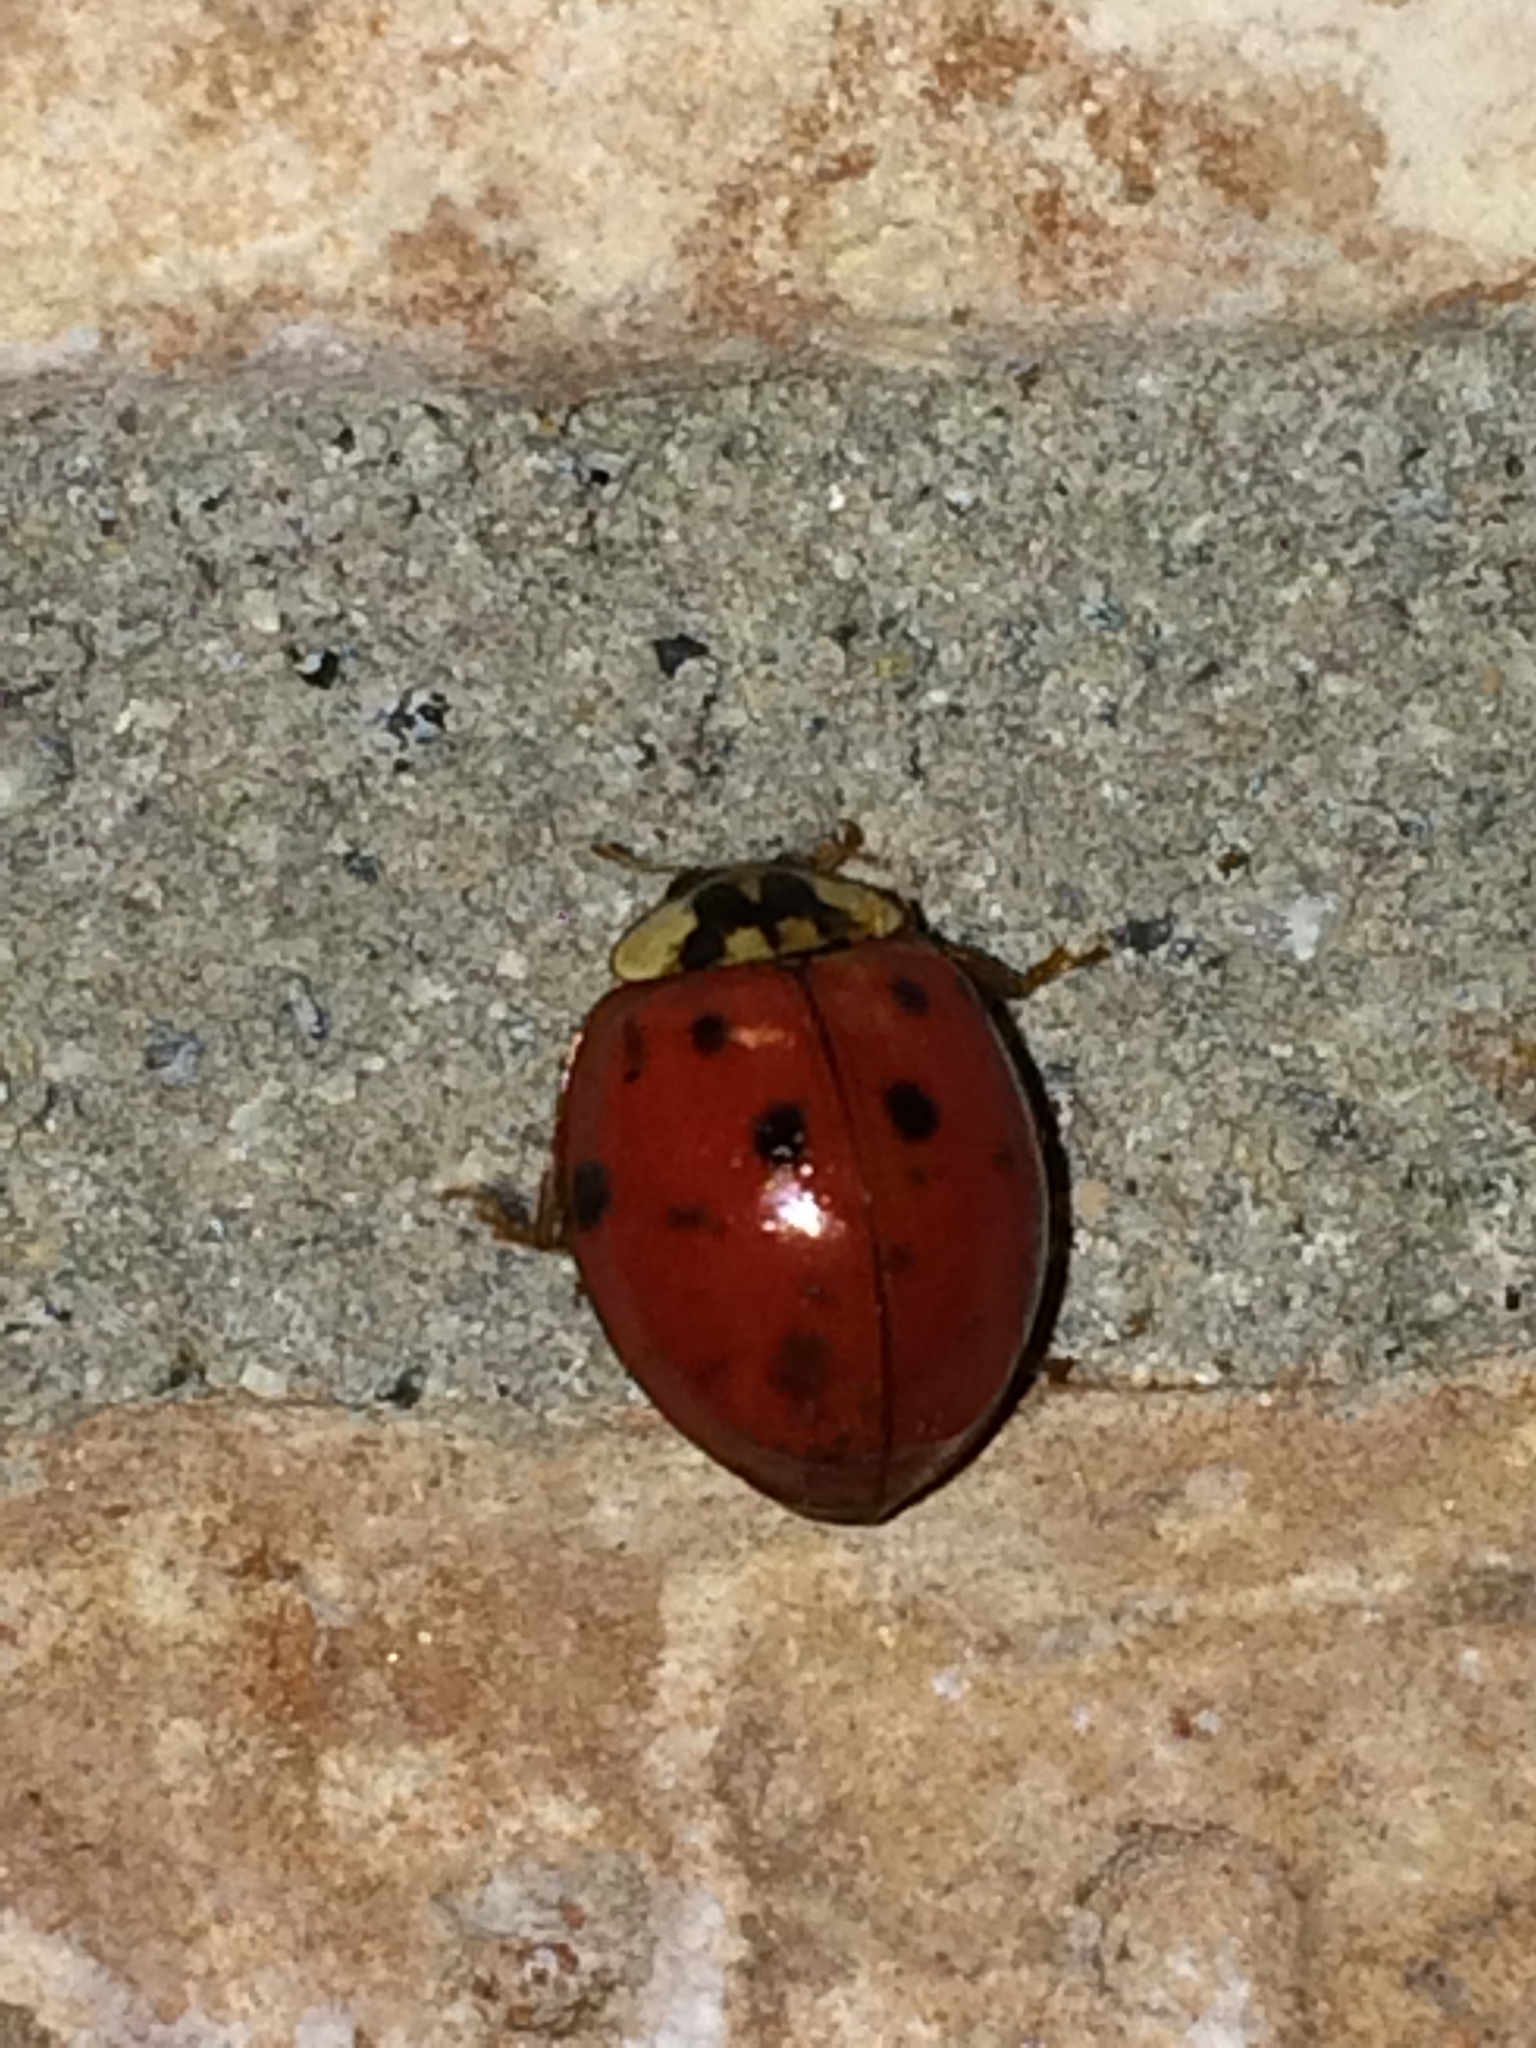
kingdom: Animalia
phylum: Arthropoda
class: Insecta
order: Coleoptera
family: Coccinellidae
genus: Harmonia
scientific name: Harmonia axyridis
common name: Harlequin ladybird
